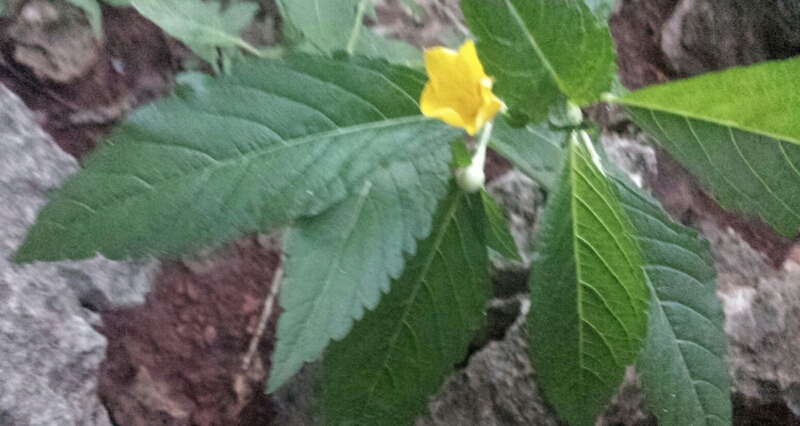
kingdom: Plantae
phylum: Tracheophyta
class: Magnoliopsida
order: Malpighiales
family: Turneraceae
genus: Turnera
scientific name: Turnera ulmifolia
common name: Ramgoat dashalong
